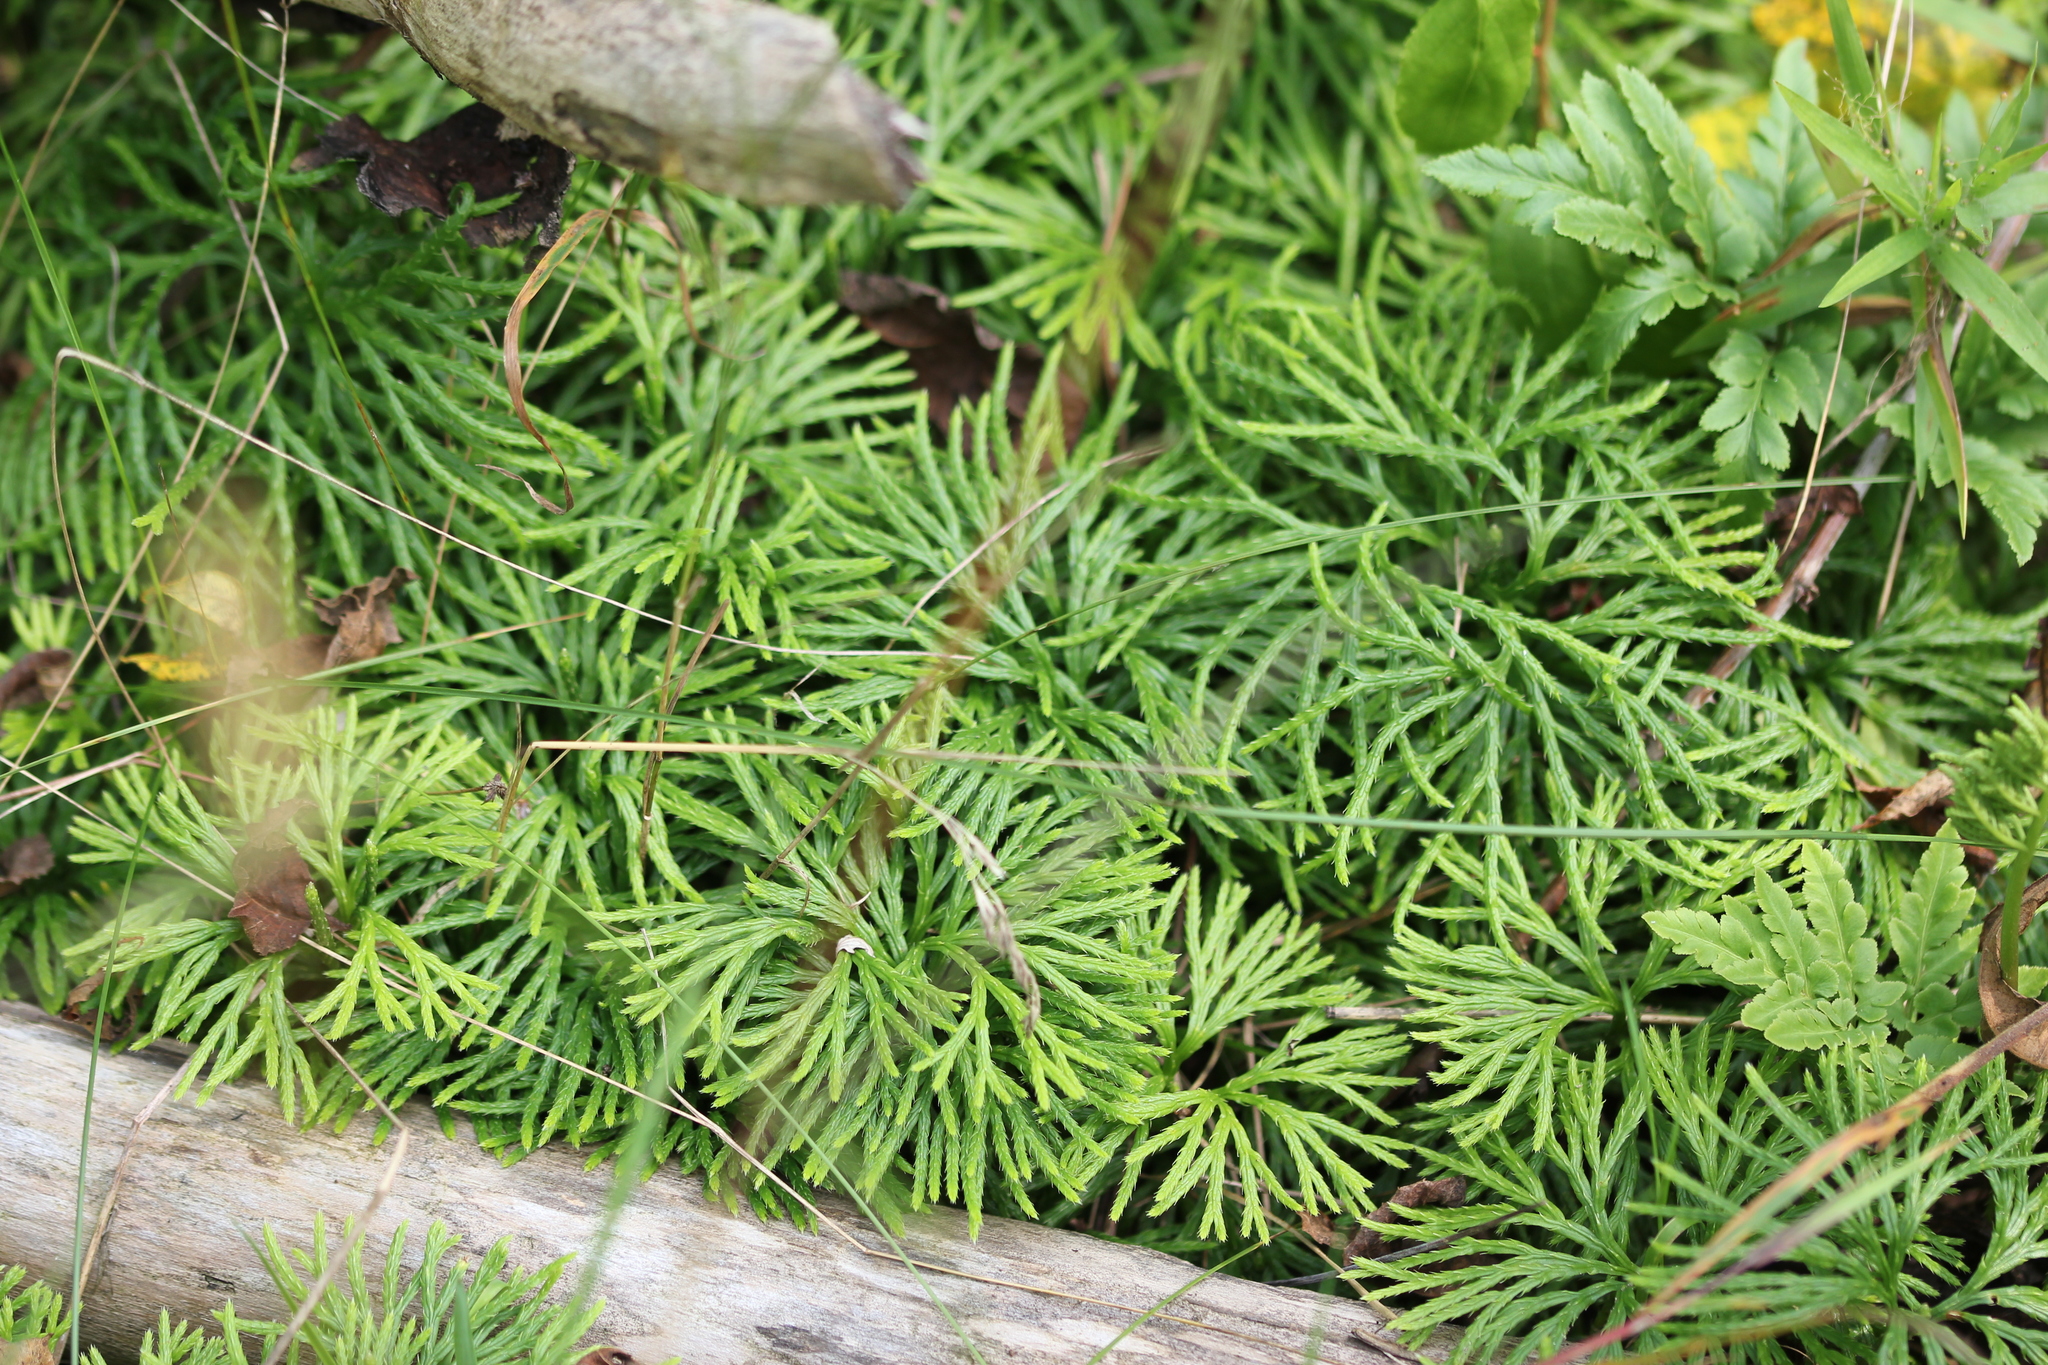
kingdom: Plantae
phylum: Tracheophyta
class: Lycopodiopsida
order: Lycopodiales
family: Lycopodiaceae
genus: Diphasiastrum
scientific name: Diphasiastrum digitatum
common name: Southern running-pine
